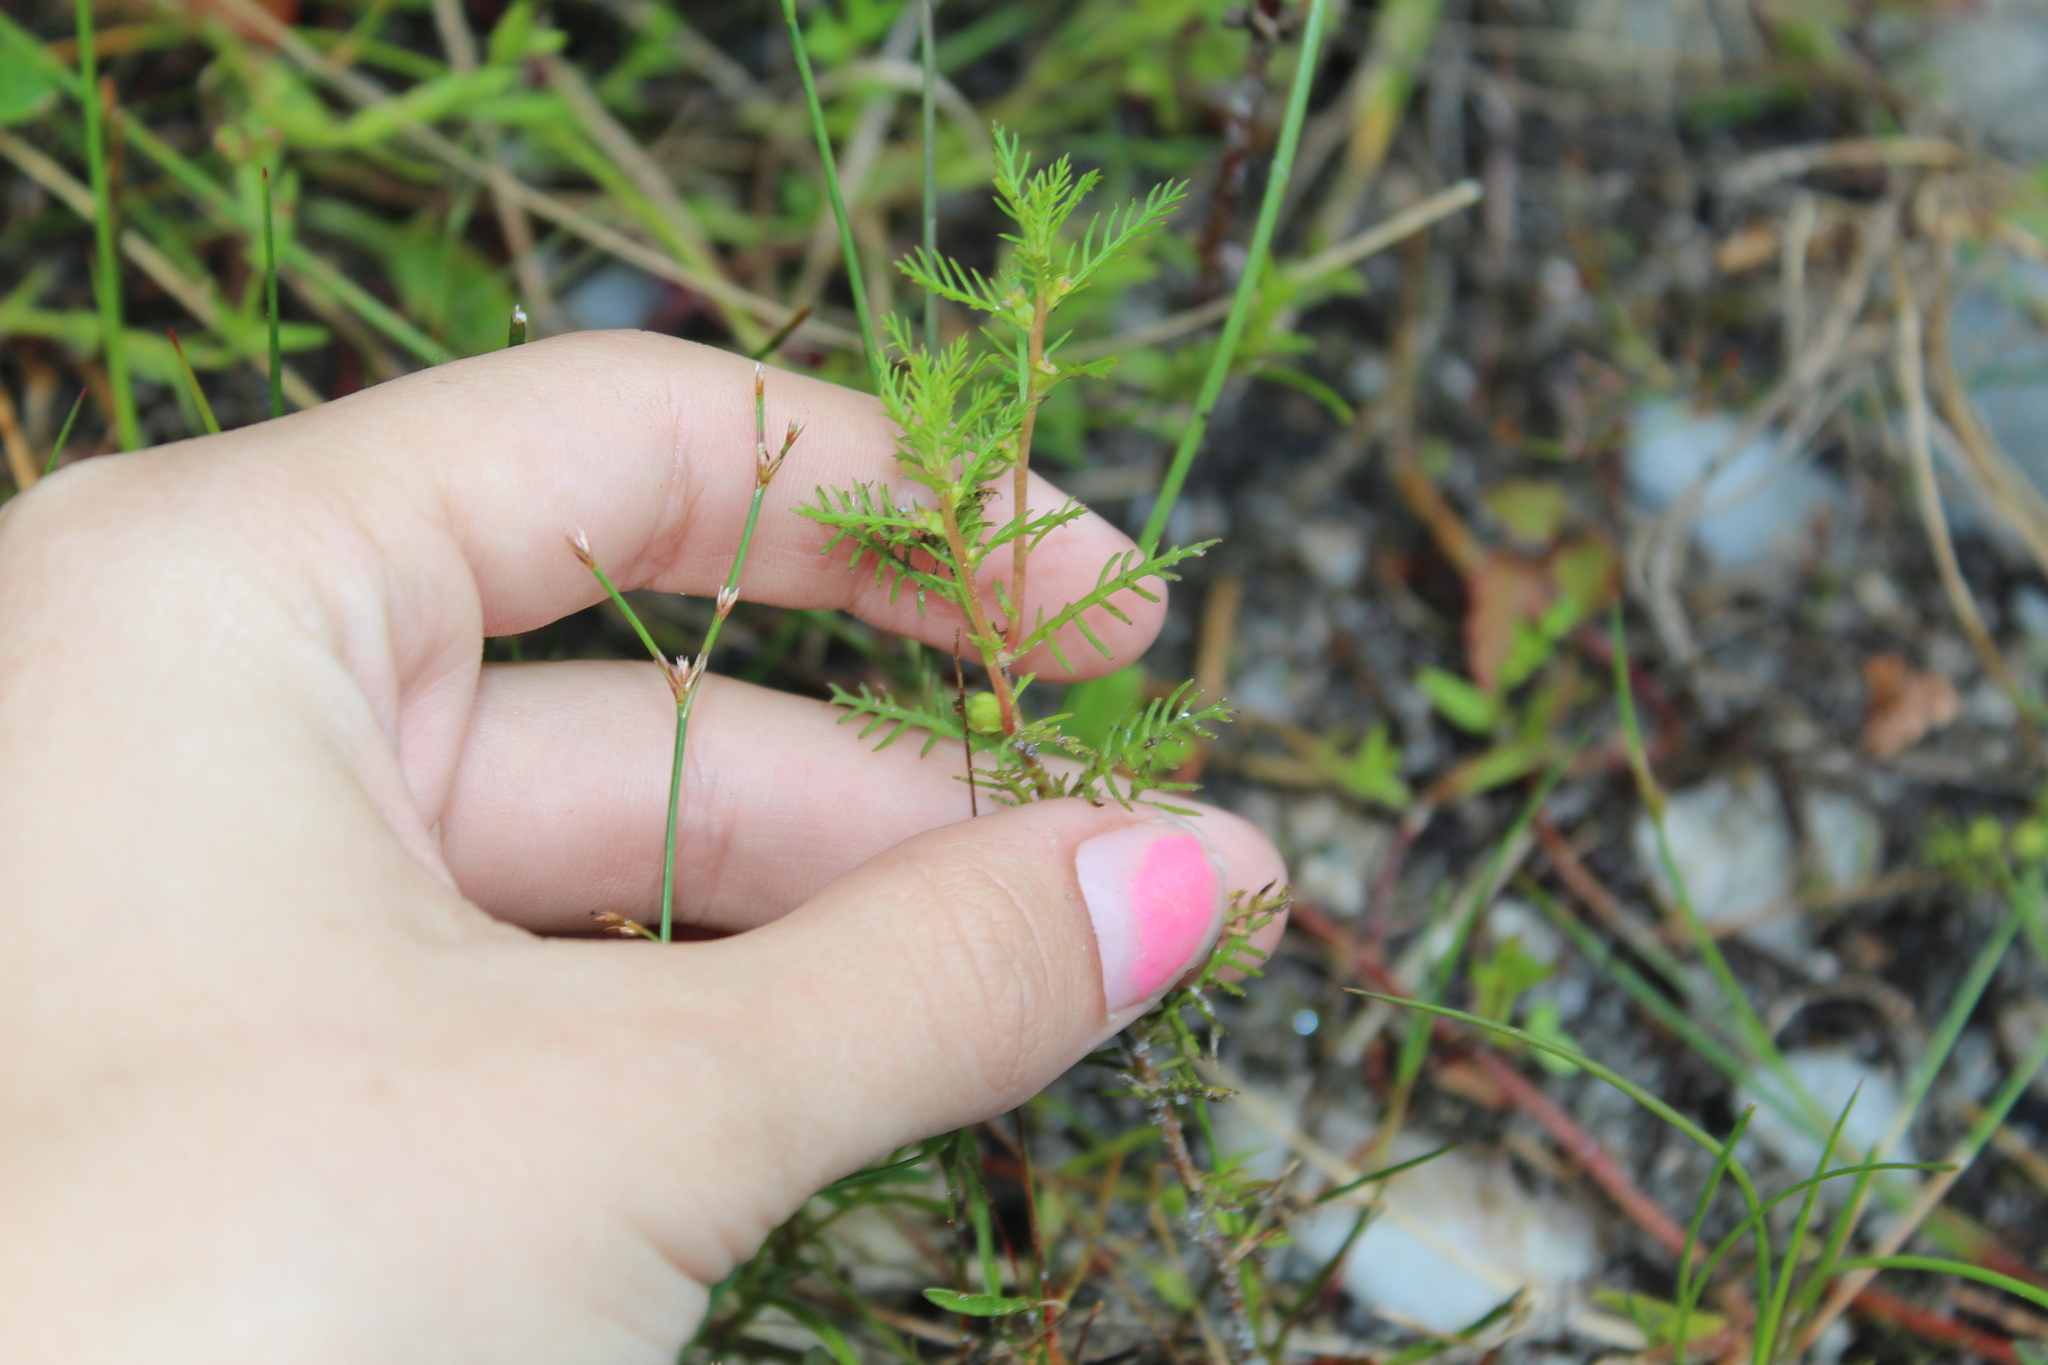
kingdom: Plantae
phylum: Tracheophyta
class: Magnoliopsida
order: Saxifragales
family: Haloragaceae
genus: Proserpinaca
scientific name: Proserpinaca pectinata
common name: Comb-leaved mermaidweed
